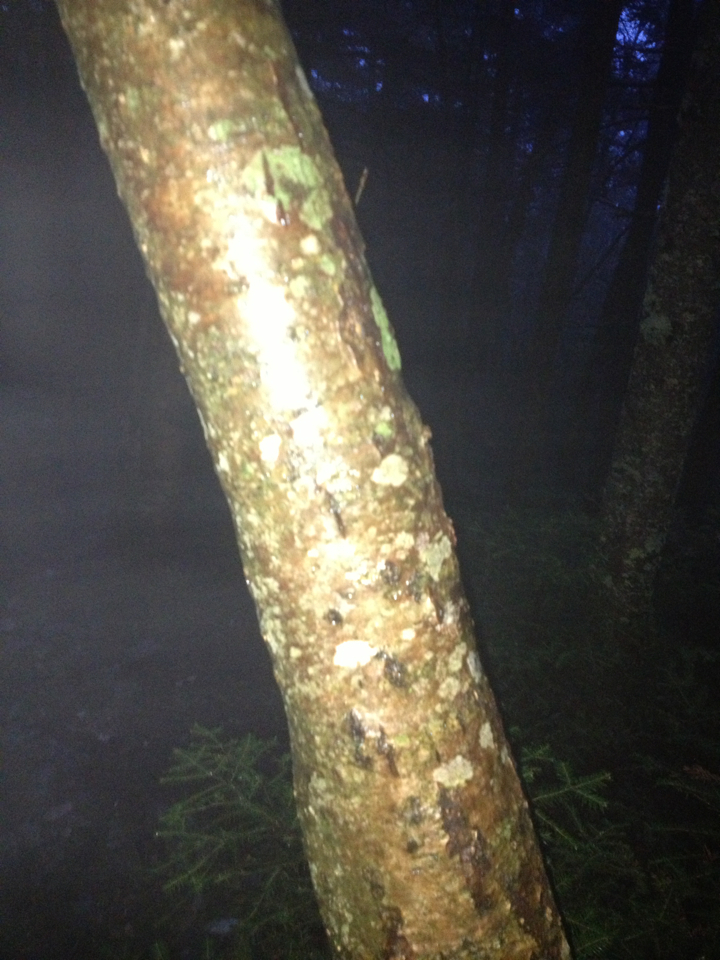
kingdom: Plantae
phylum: Tracheophyta
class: Magnoliopsida
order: Rosales
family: Rosaceae
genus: Sorbus
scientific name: Sorbus americana
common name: American mountain-ash
